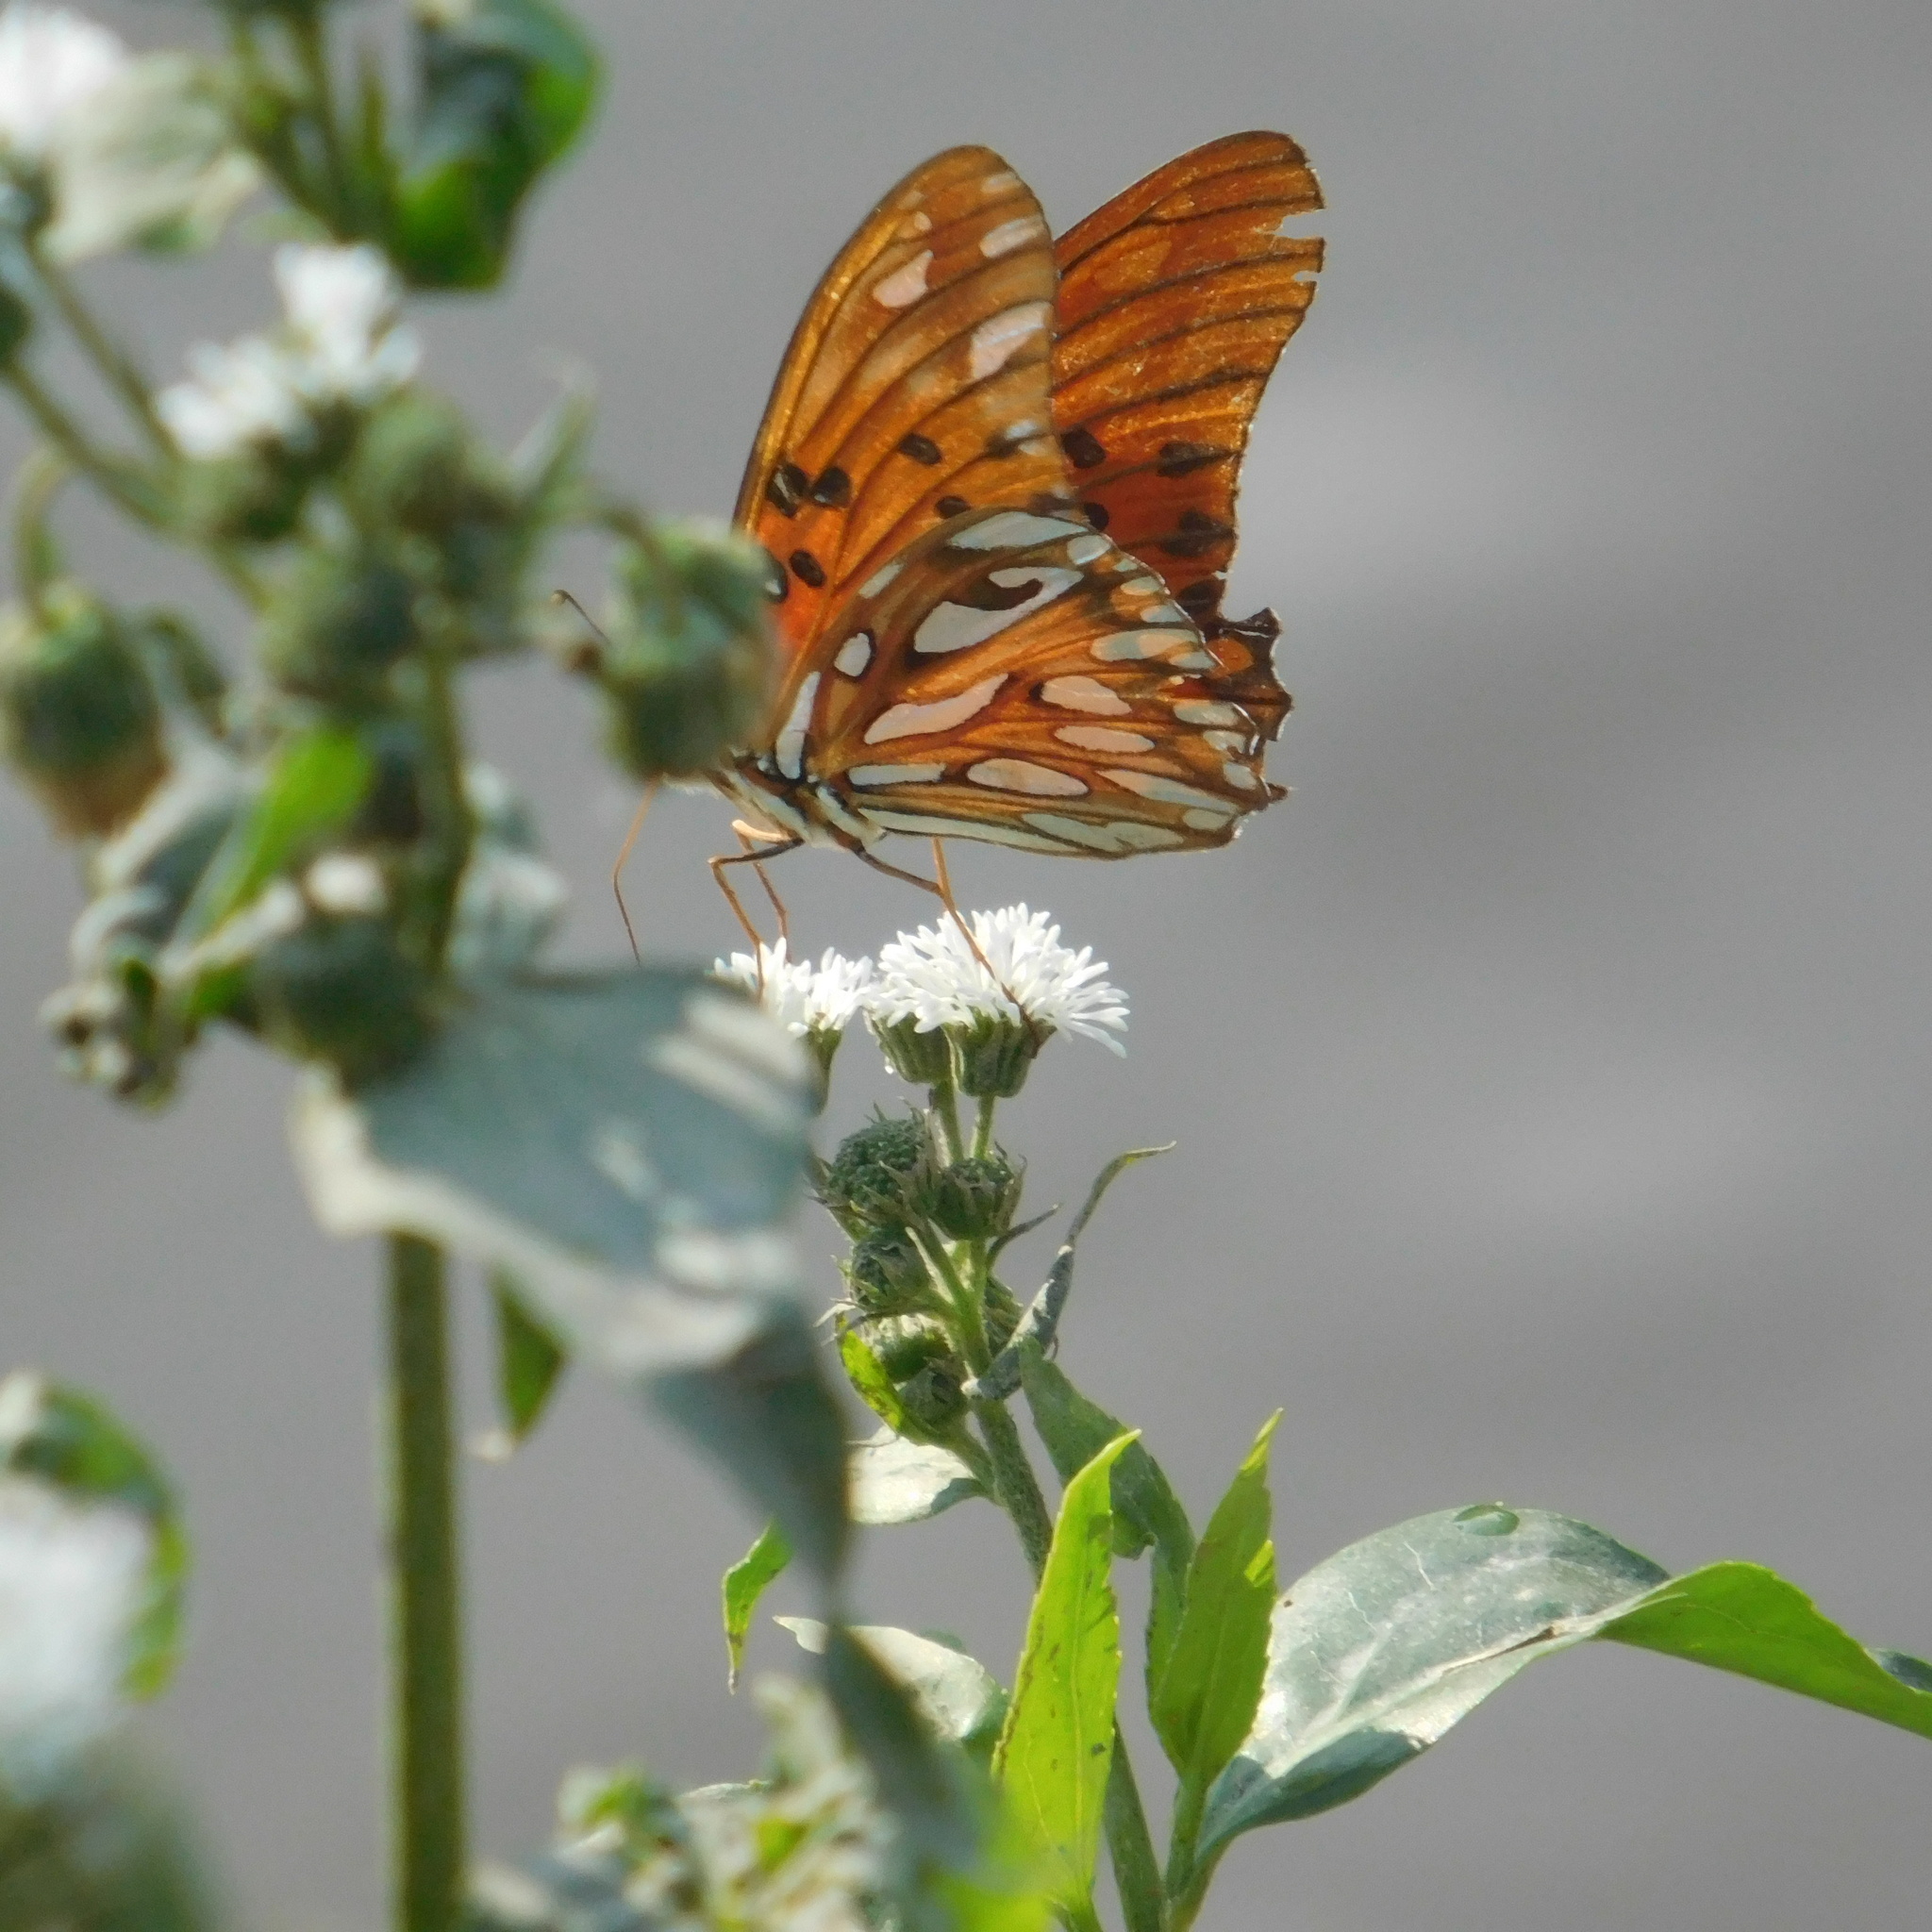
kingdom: Animalia
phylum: Arthropoda
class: Insecta
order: Lepidoptera
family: Nymphalidae
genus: Dione
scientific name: Dione vanillae
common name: Gulf fritillary
